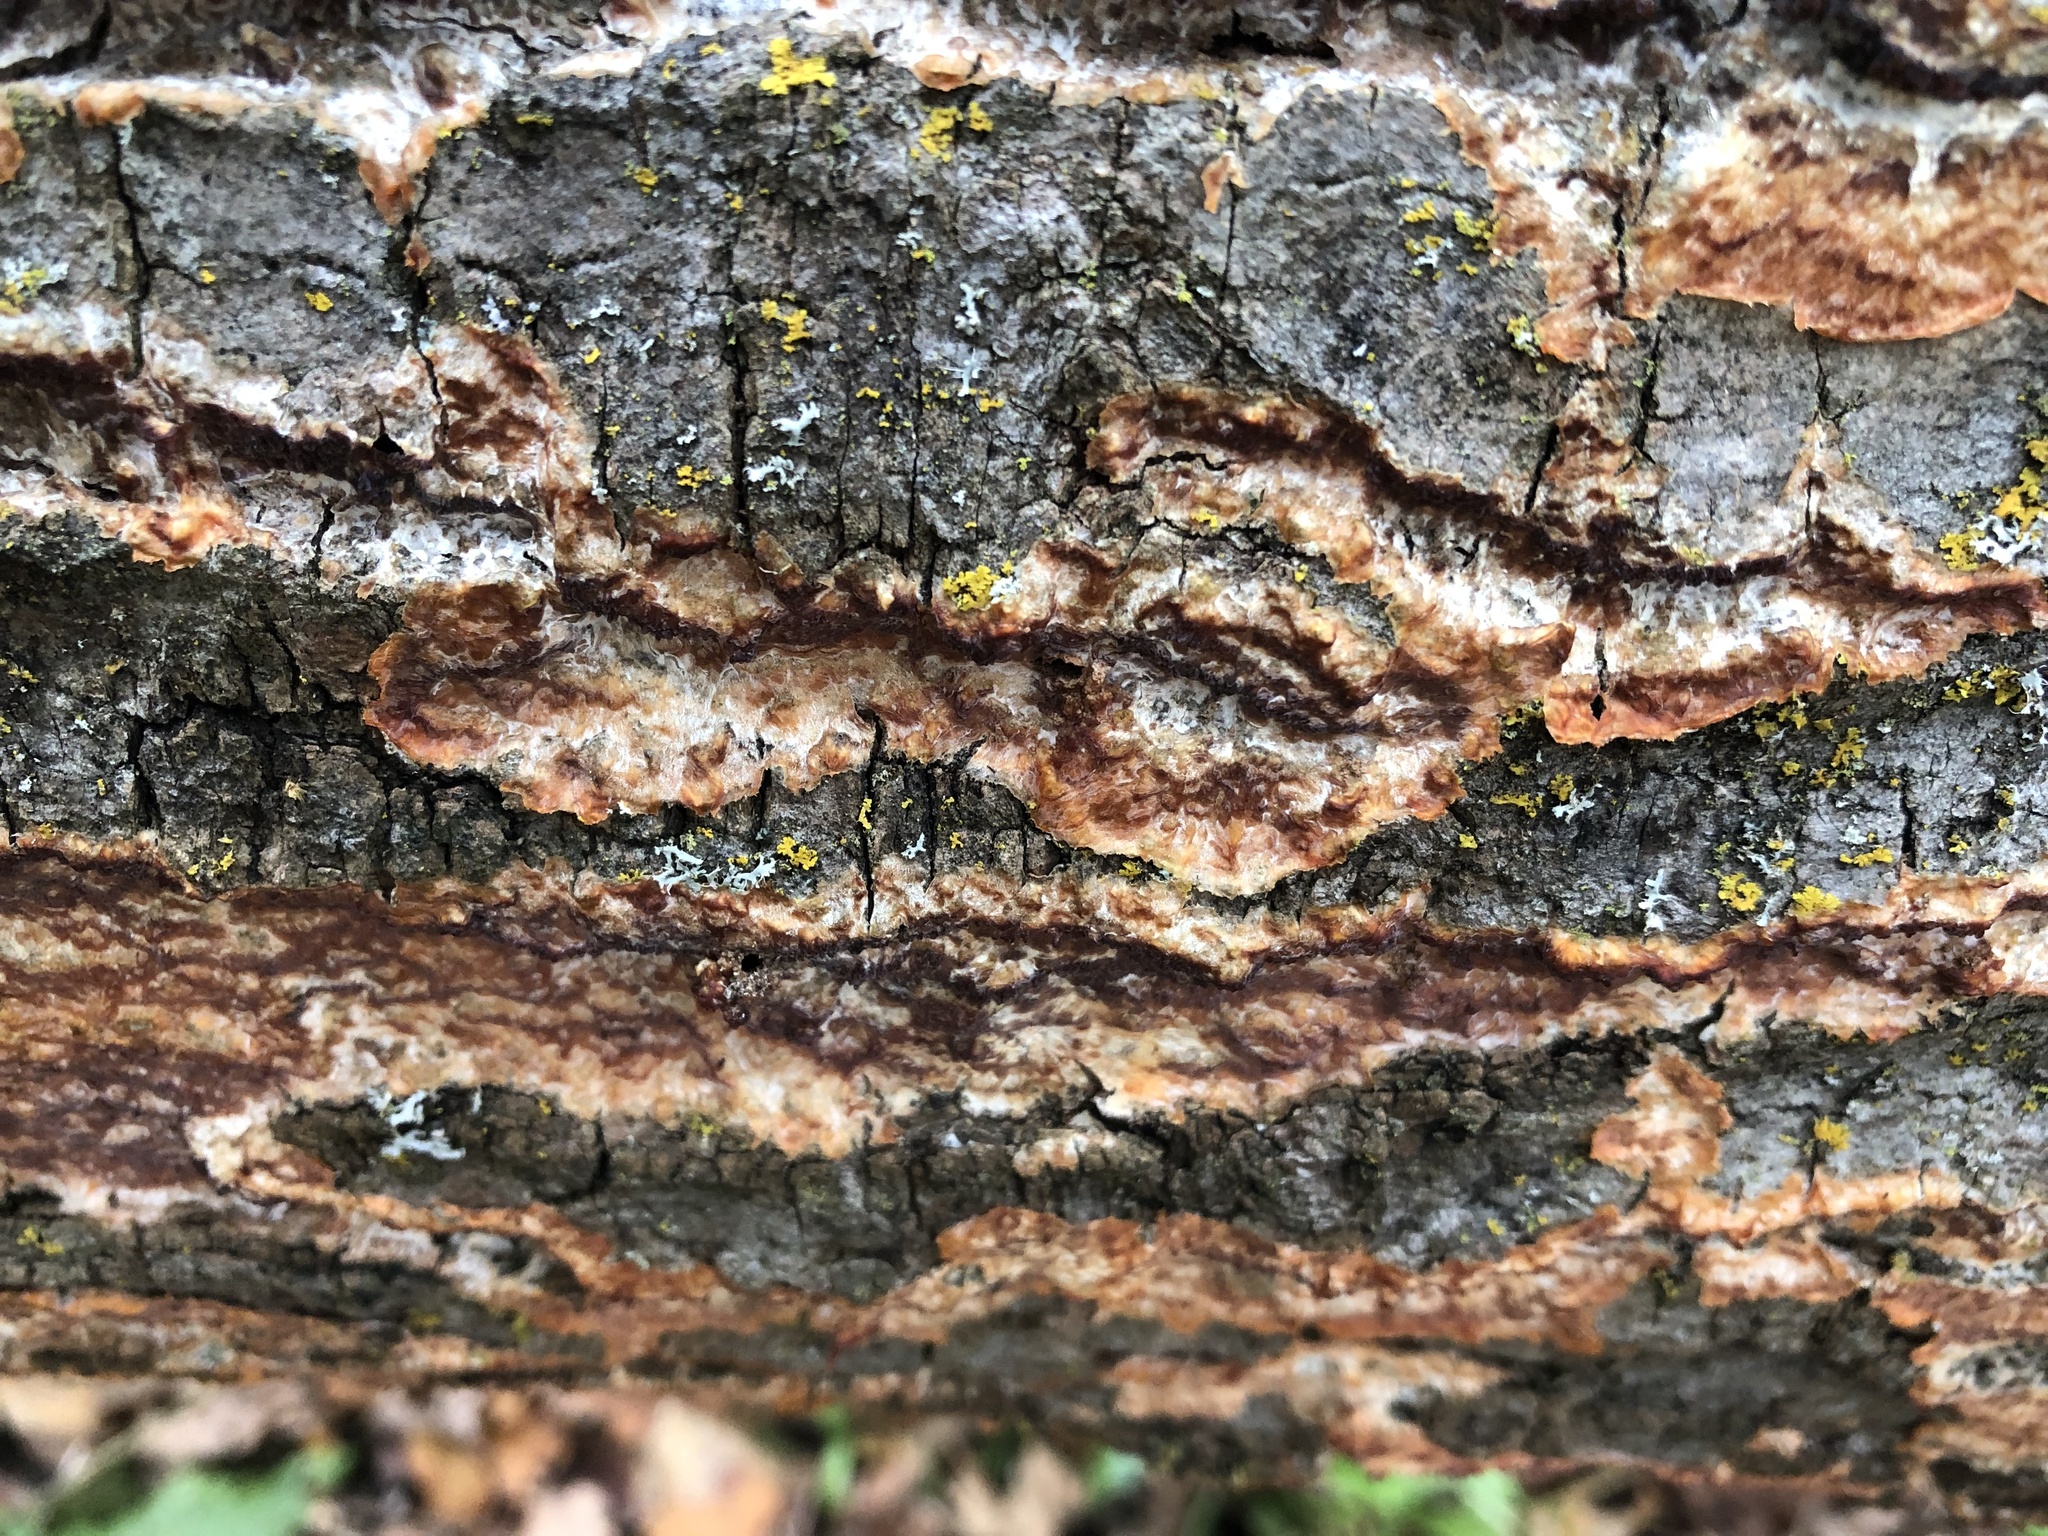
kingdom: Fungi
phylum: Basidiomycota
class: Agaricomycetes
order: Polyporales
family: Meruliaceae
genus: Phlebia
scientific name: Phlebia radiata
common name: Wrinkled crust
